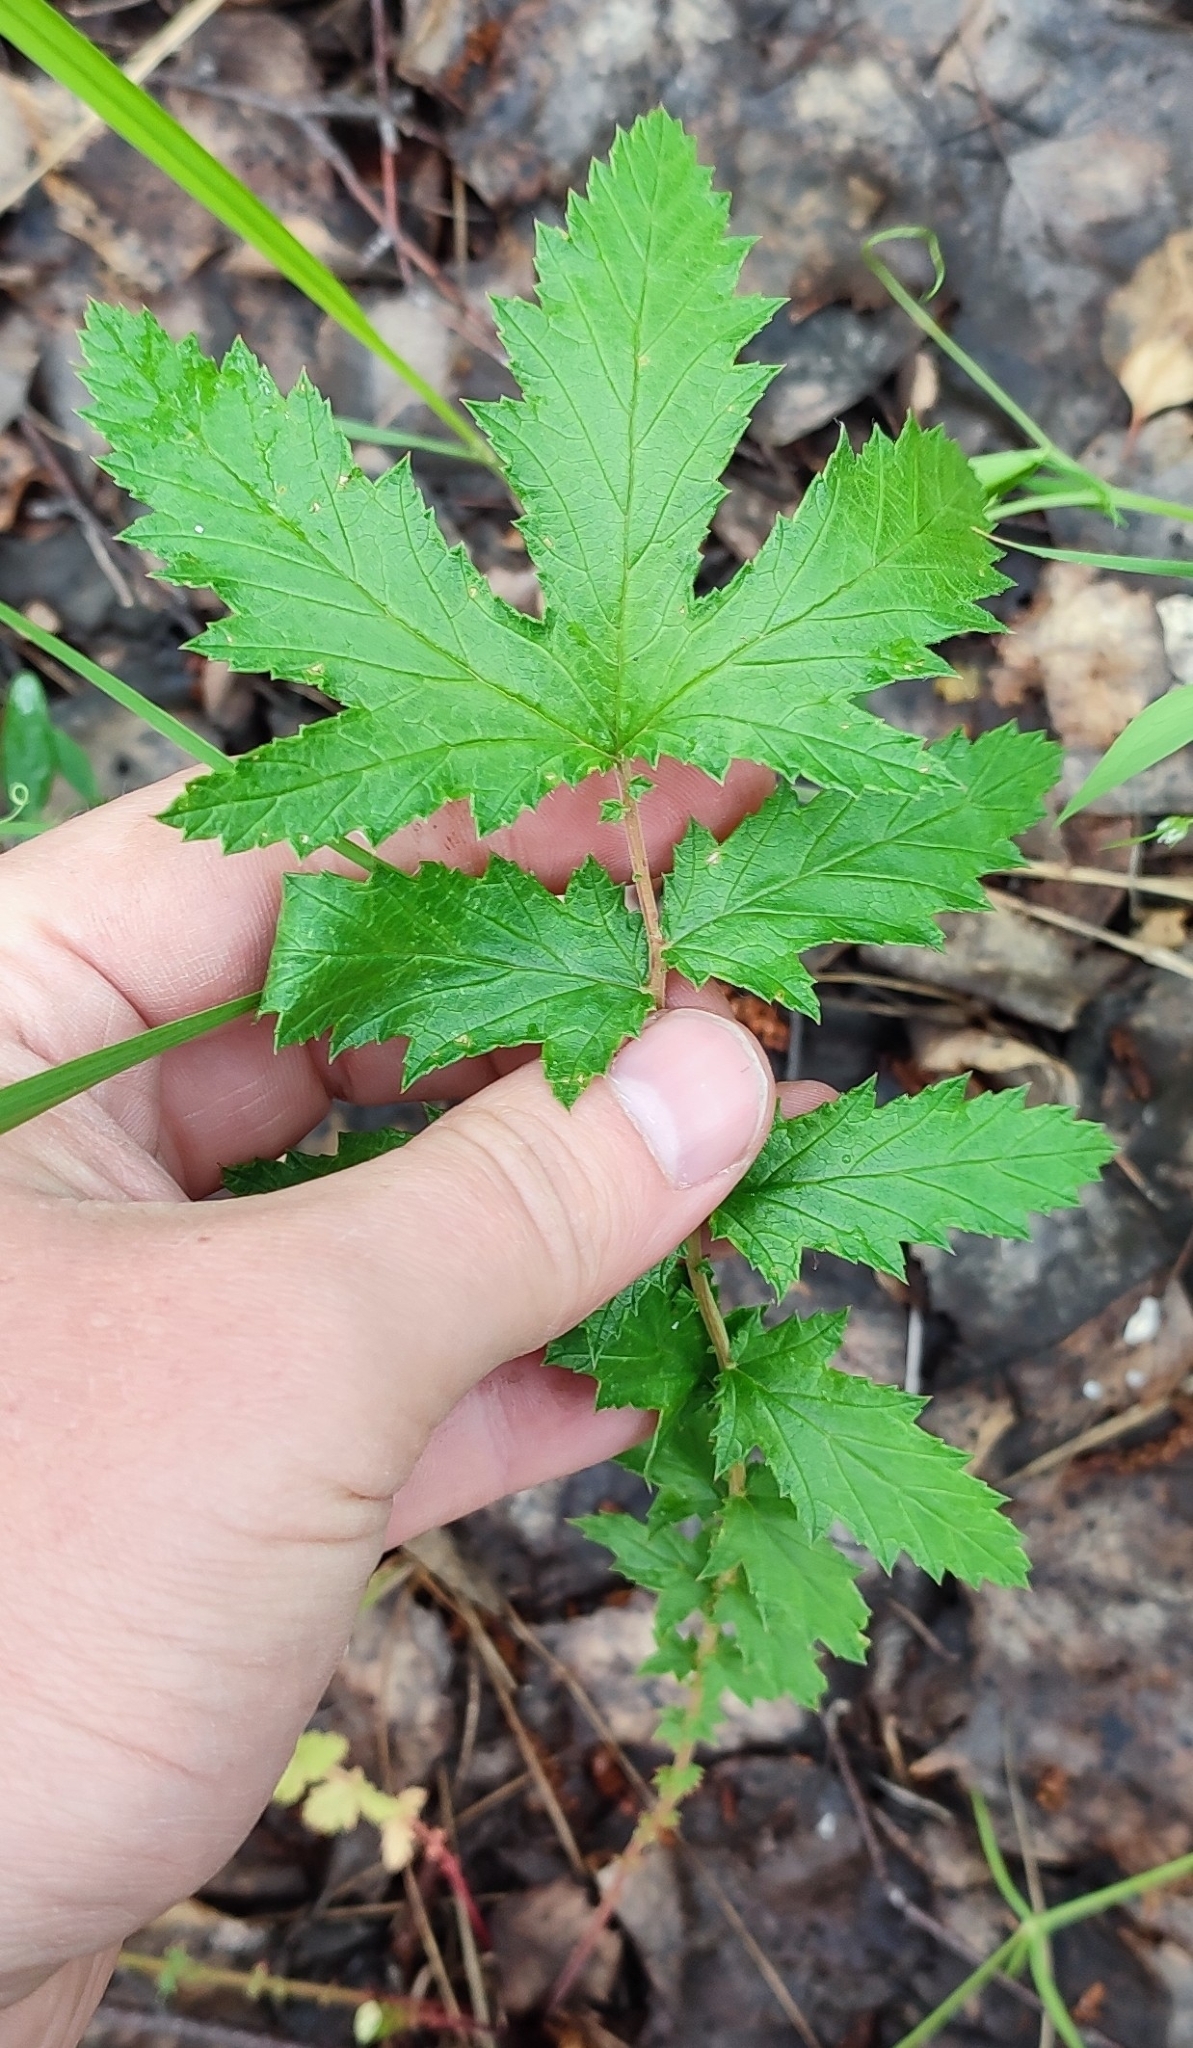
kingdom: Plantae
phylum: Tracheophyta
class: Magnoliopsida
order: Rosales
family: Rosaceae
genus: Filipendula
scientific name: Filipendula ulmaria
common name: Meadowsweet
